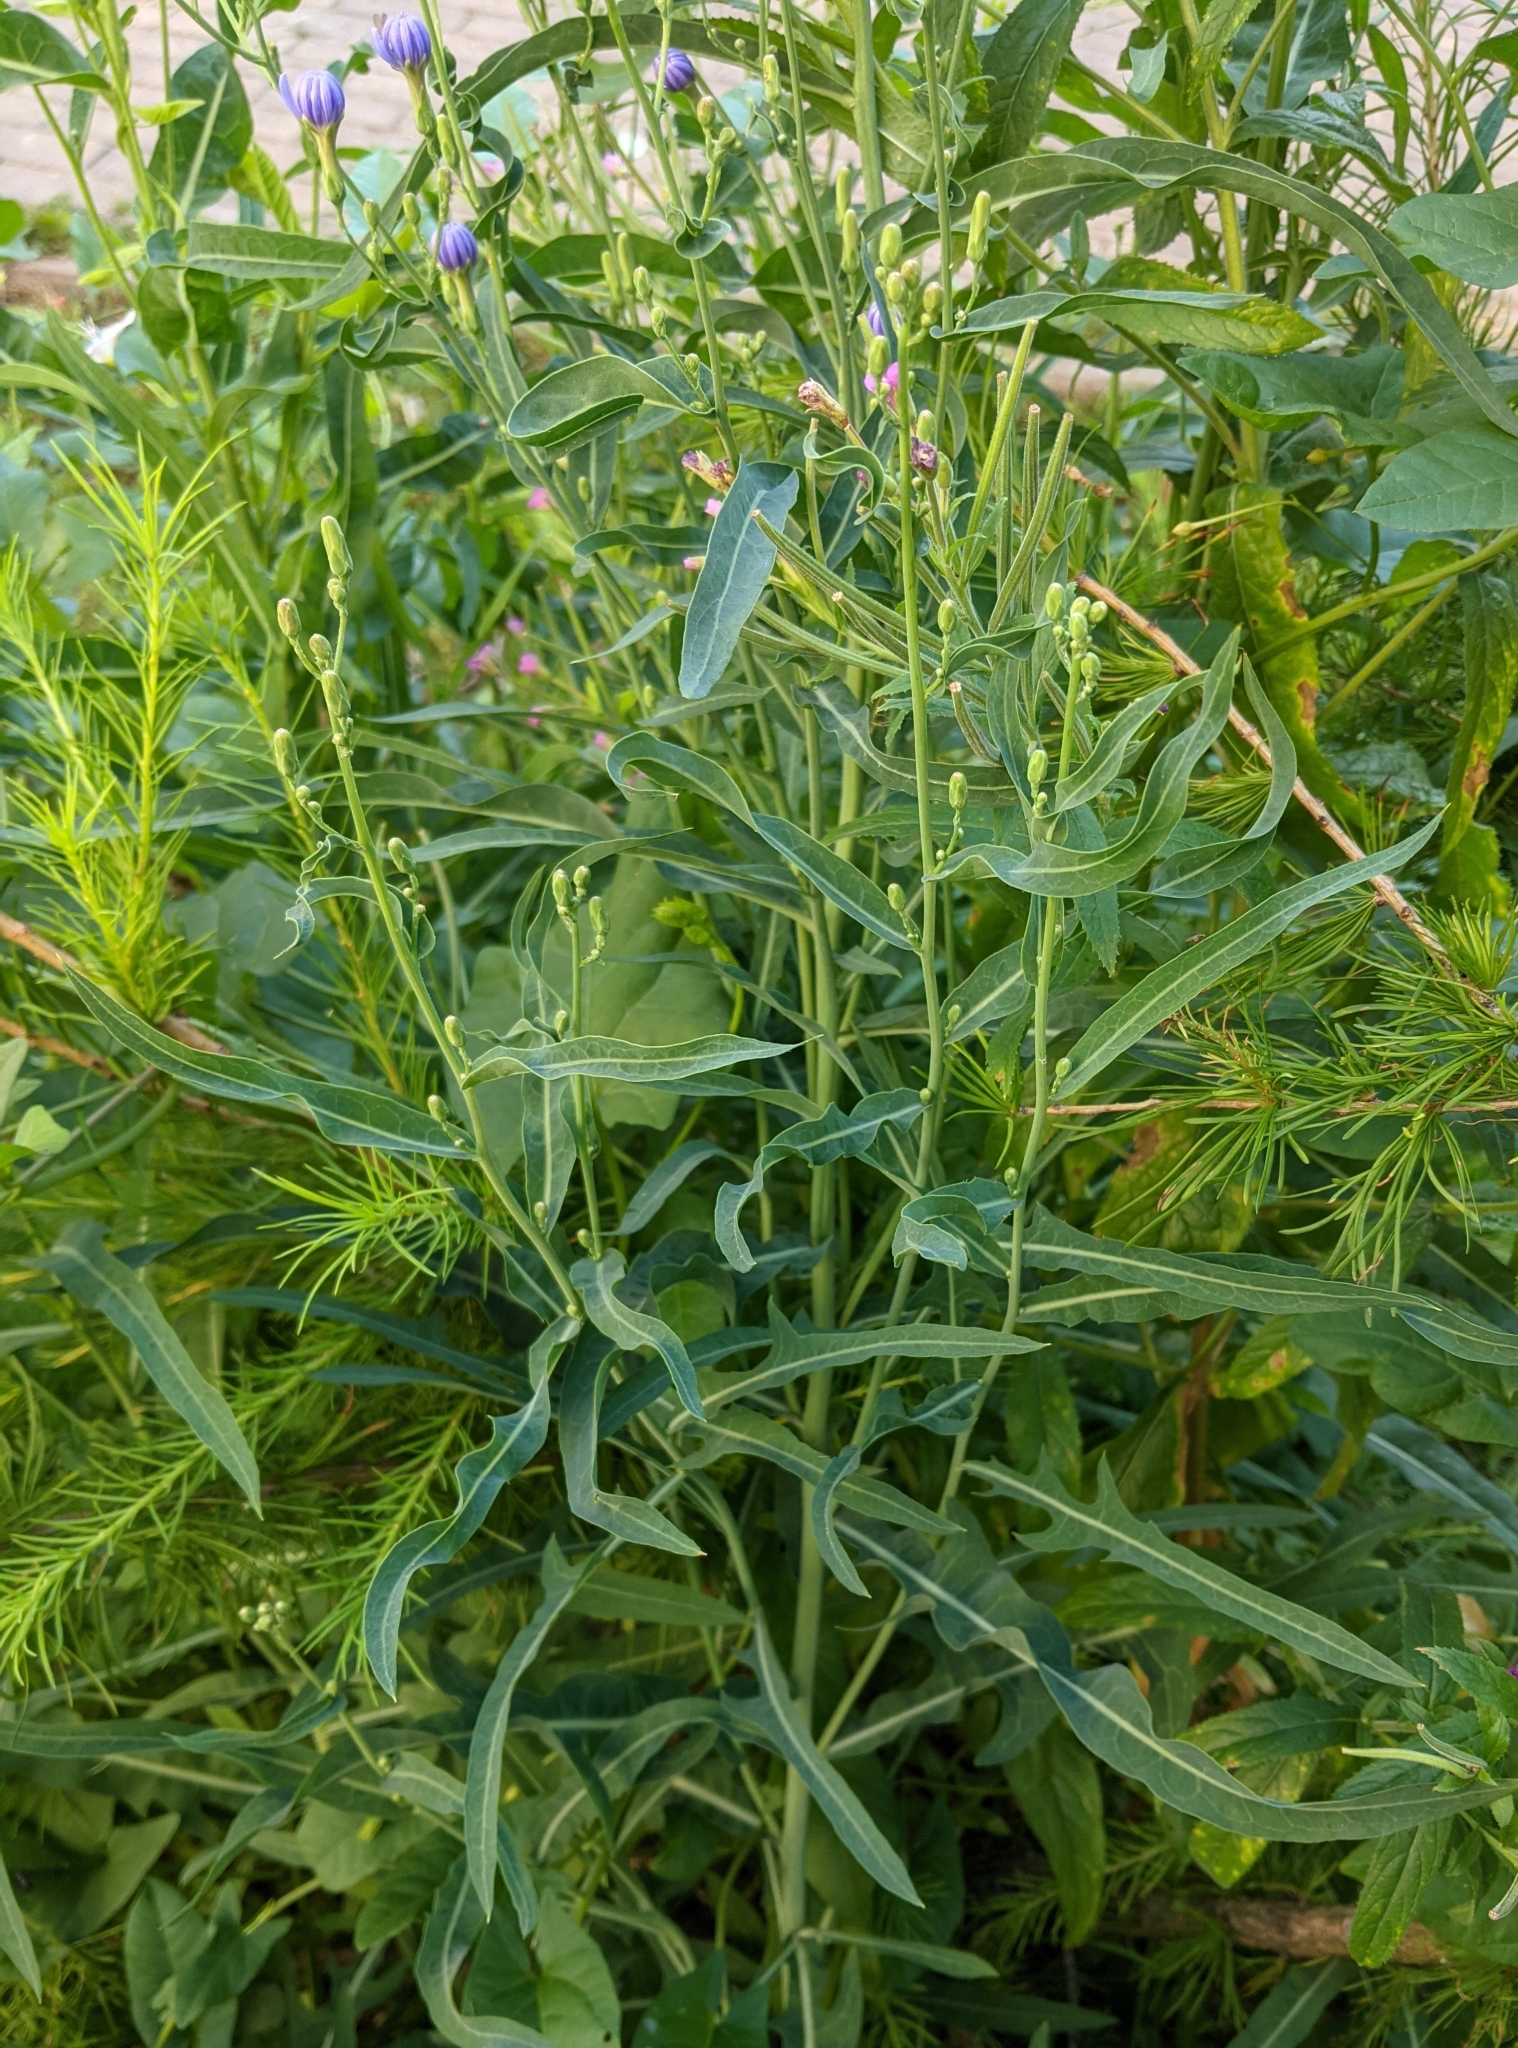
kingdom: Plantae
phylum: Tracheophyta
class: Magnoliopsida
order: Asterales
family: Asteraceae
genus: Lactuca
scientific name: Lactuca tatarica
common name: Blue lettuce
